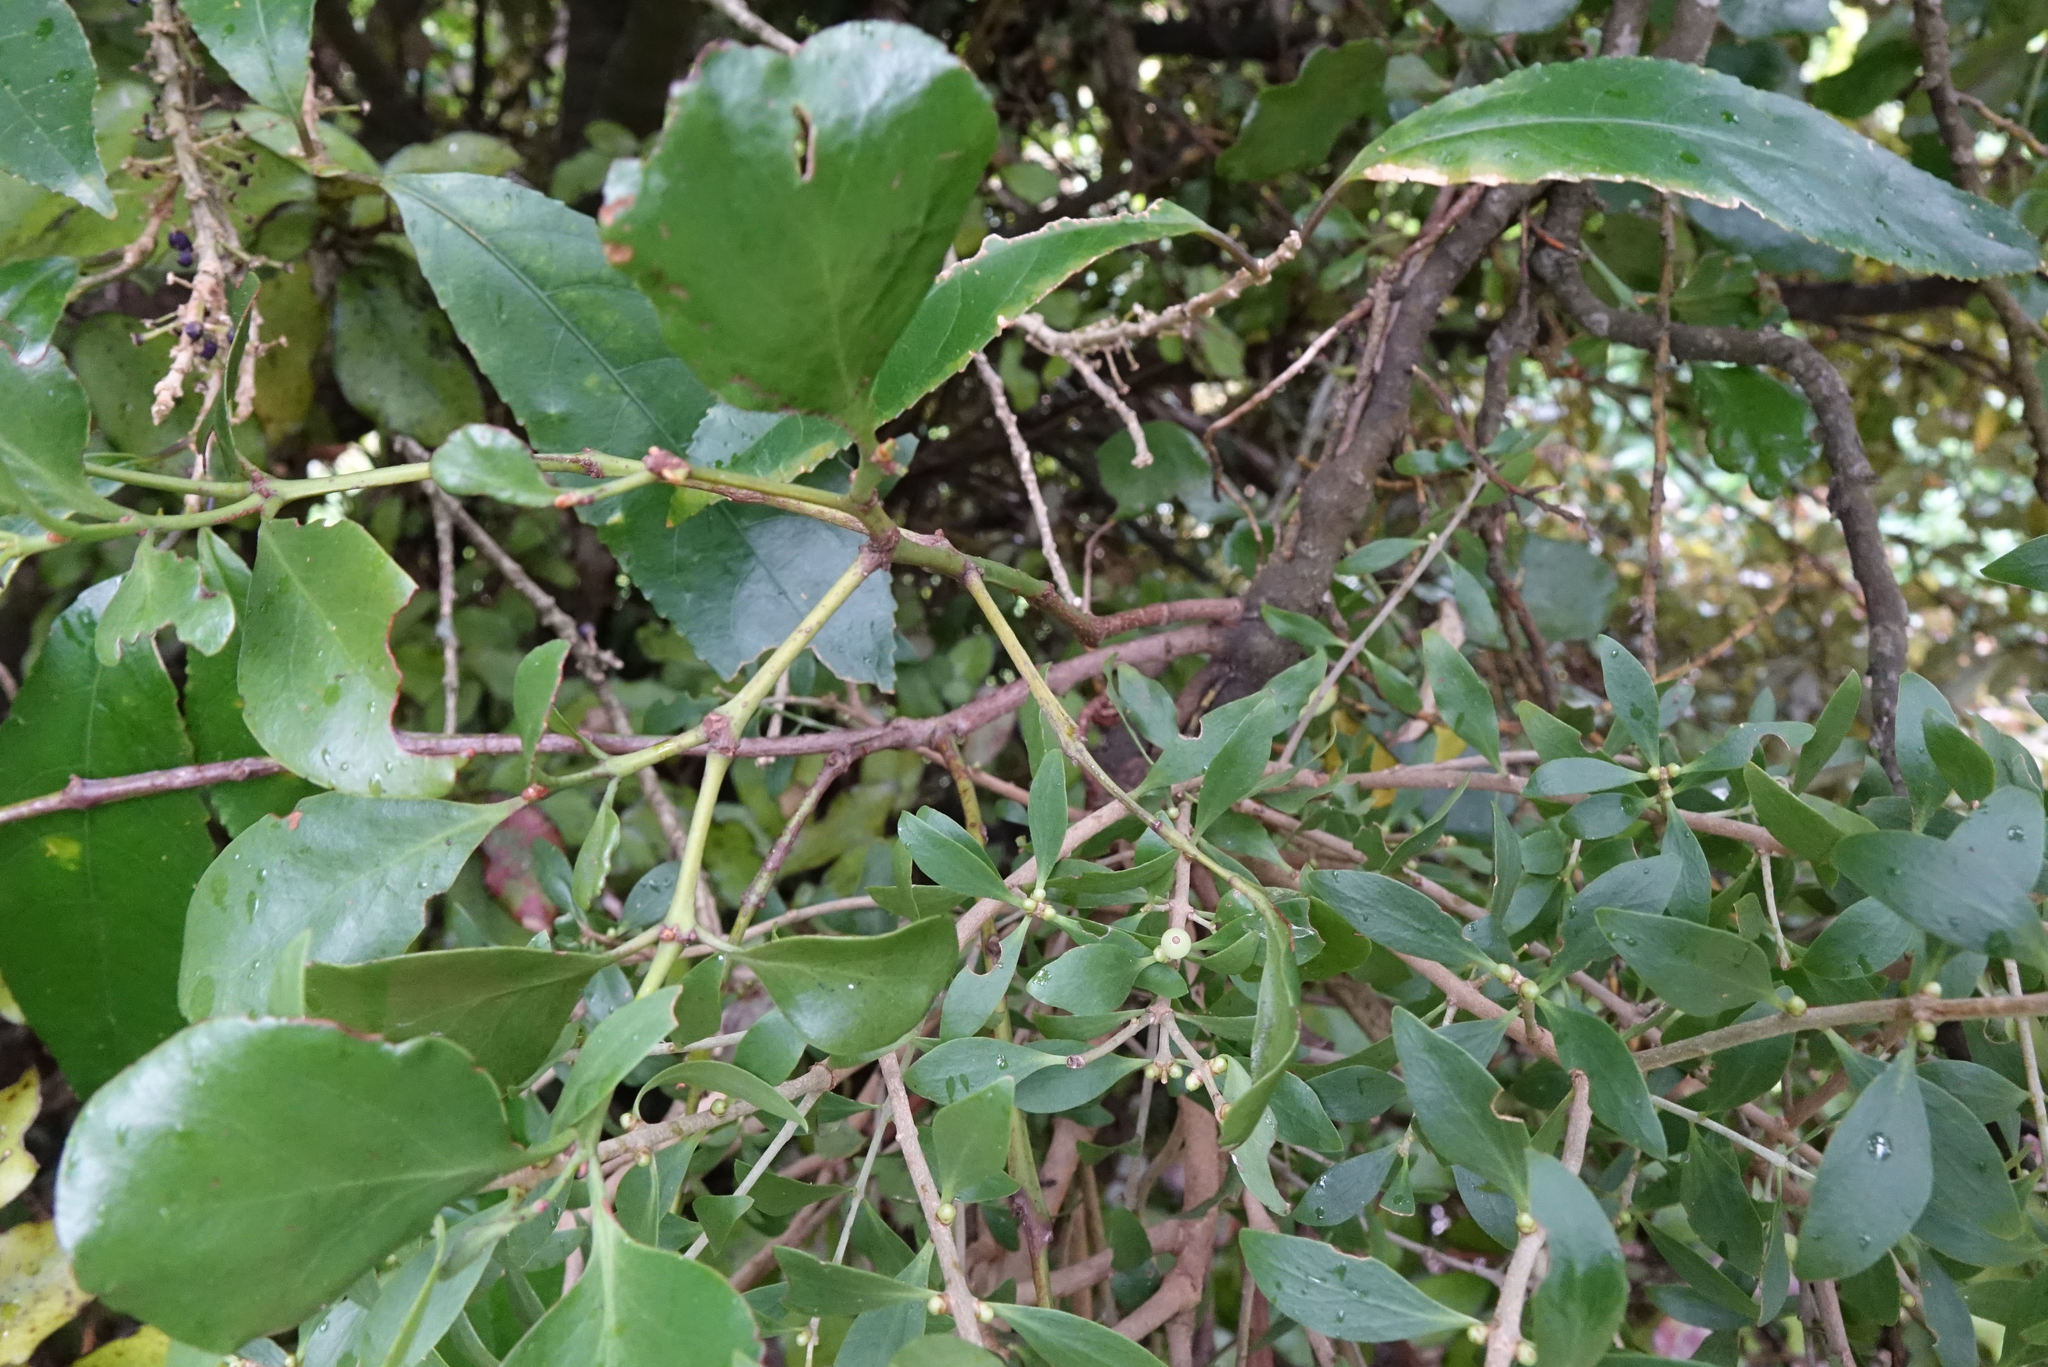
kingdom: Plantae
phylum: Tracheophyta
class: Magnoliopsida
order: Santalales
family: Loranthaceae
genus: Ileostylus
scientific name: Ileostylus micranthus
